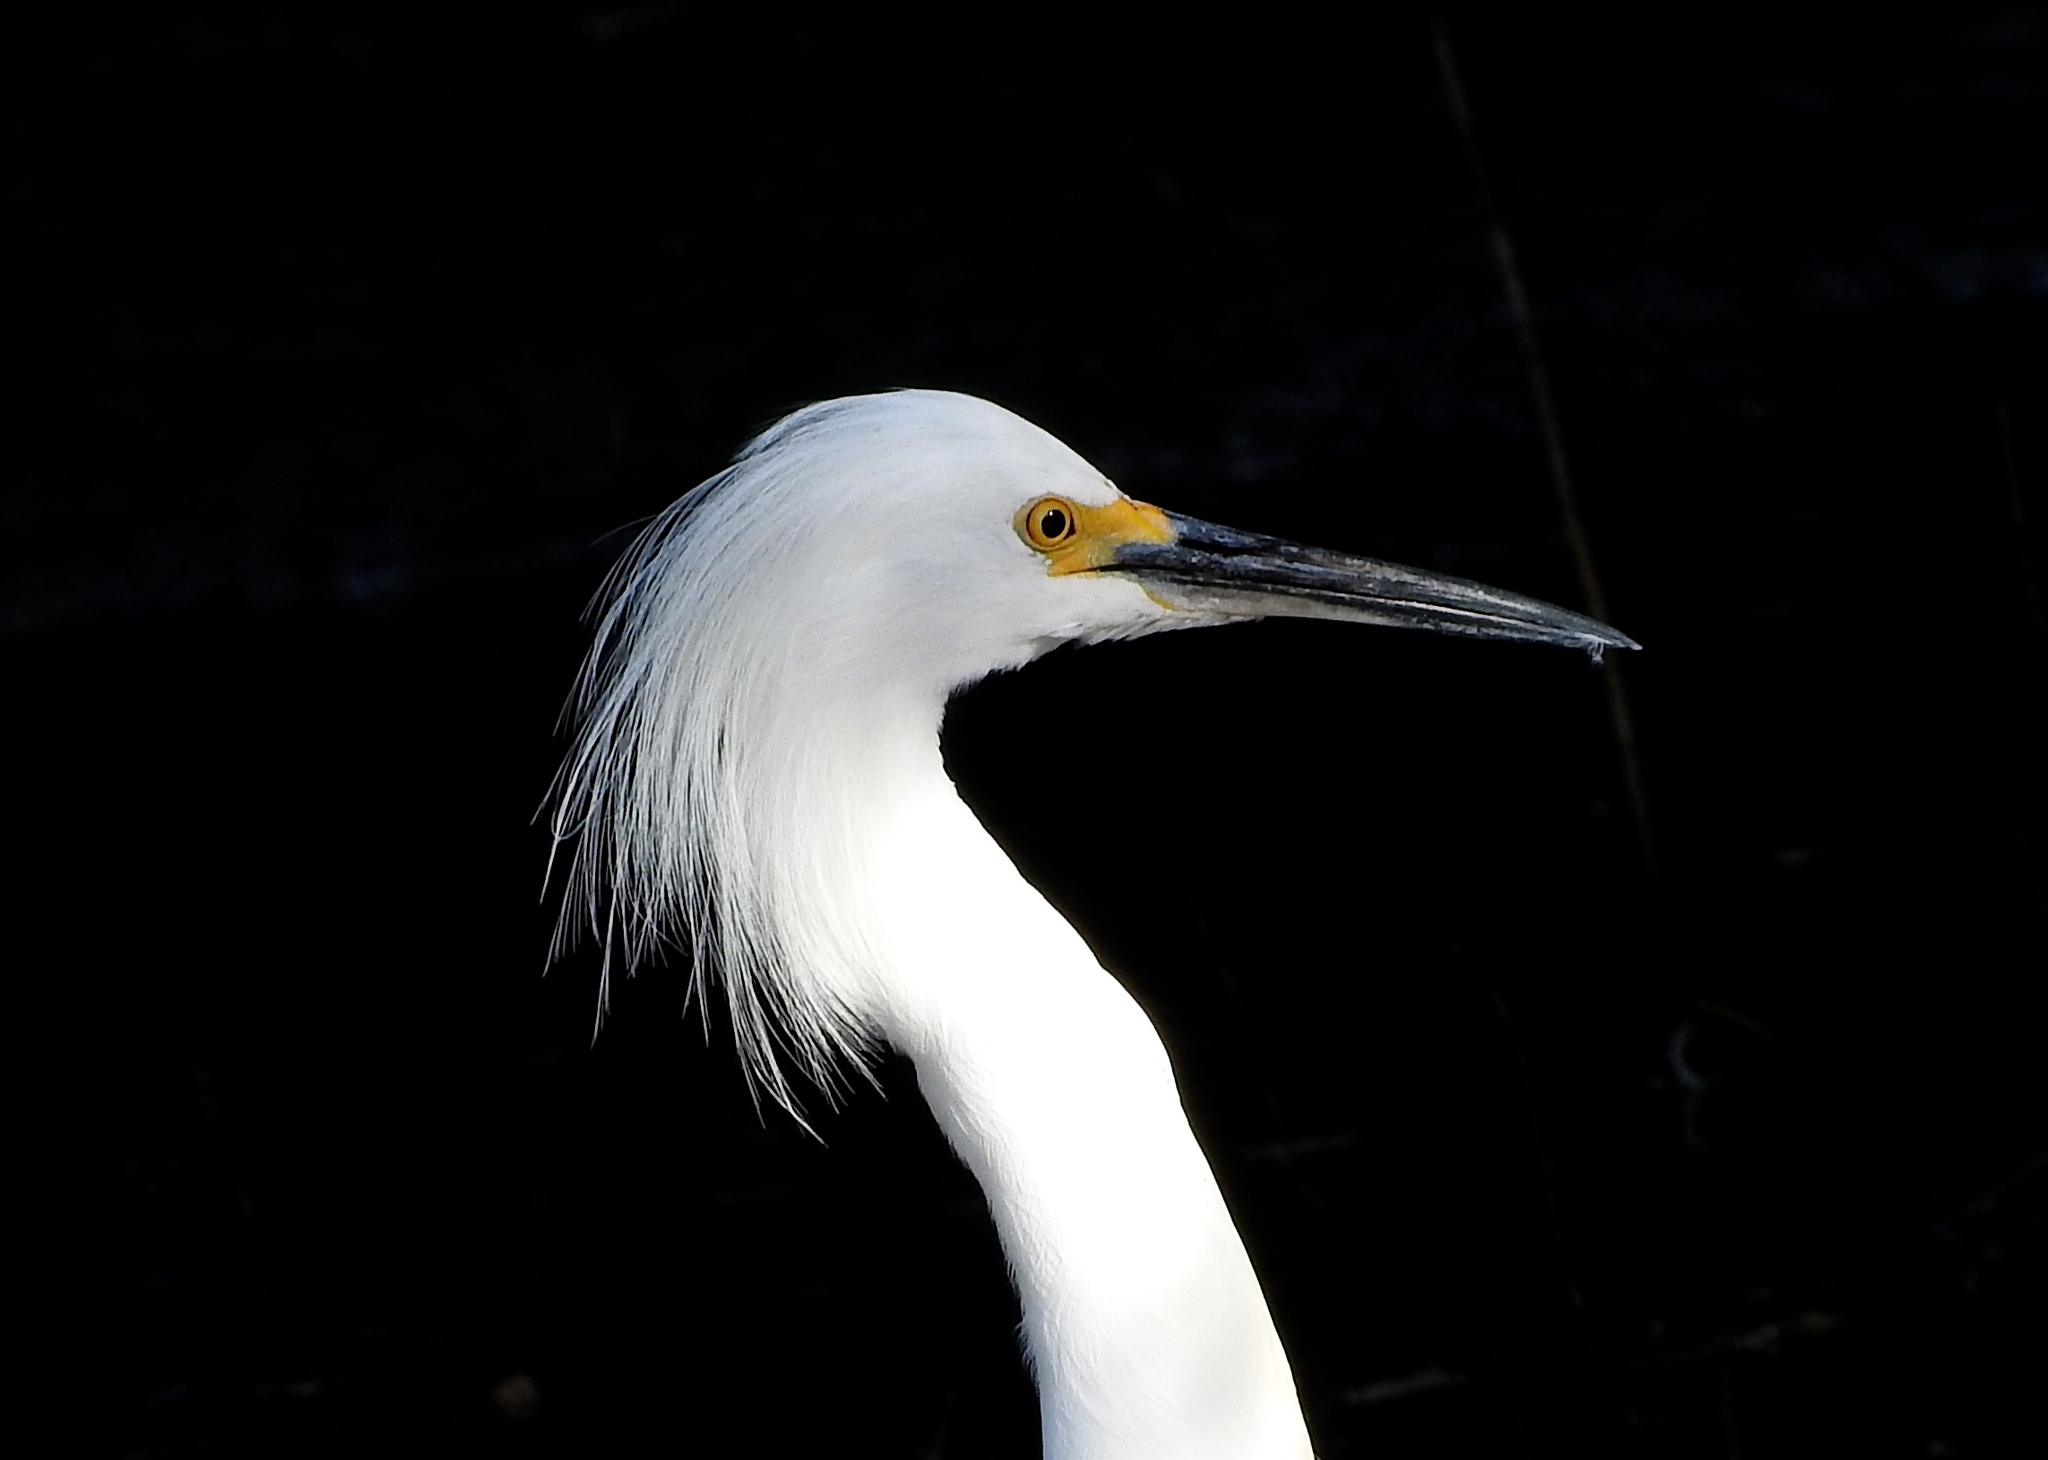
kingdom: Animalia
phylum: Chordata
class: Aves
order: Pelecaniformes
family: Ardeidae
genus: Egretta
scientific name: Egretta thula
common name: Snowy egret
